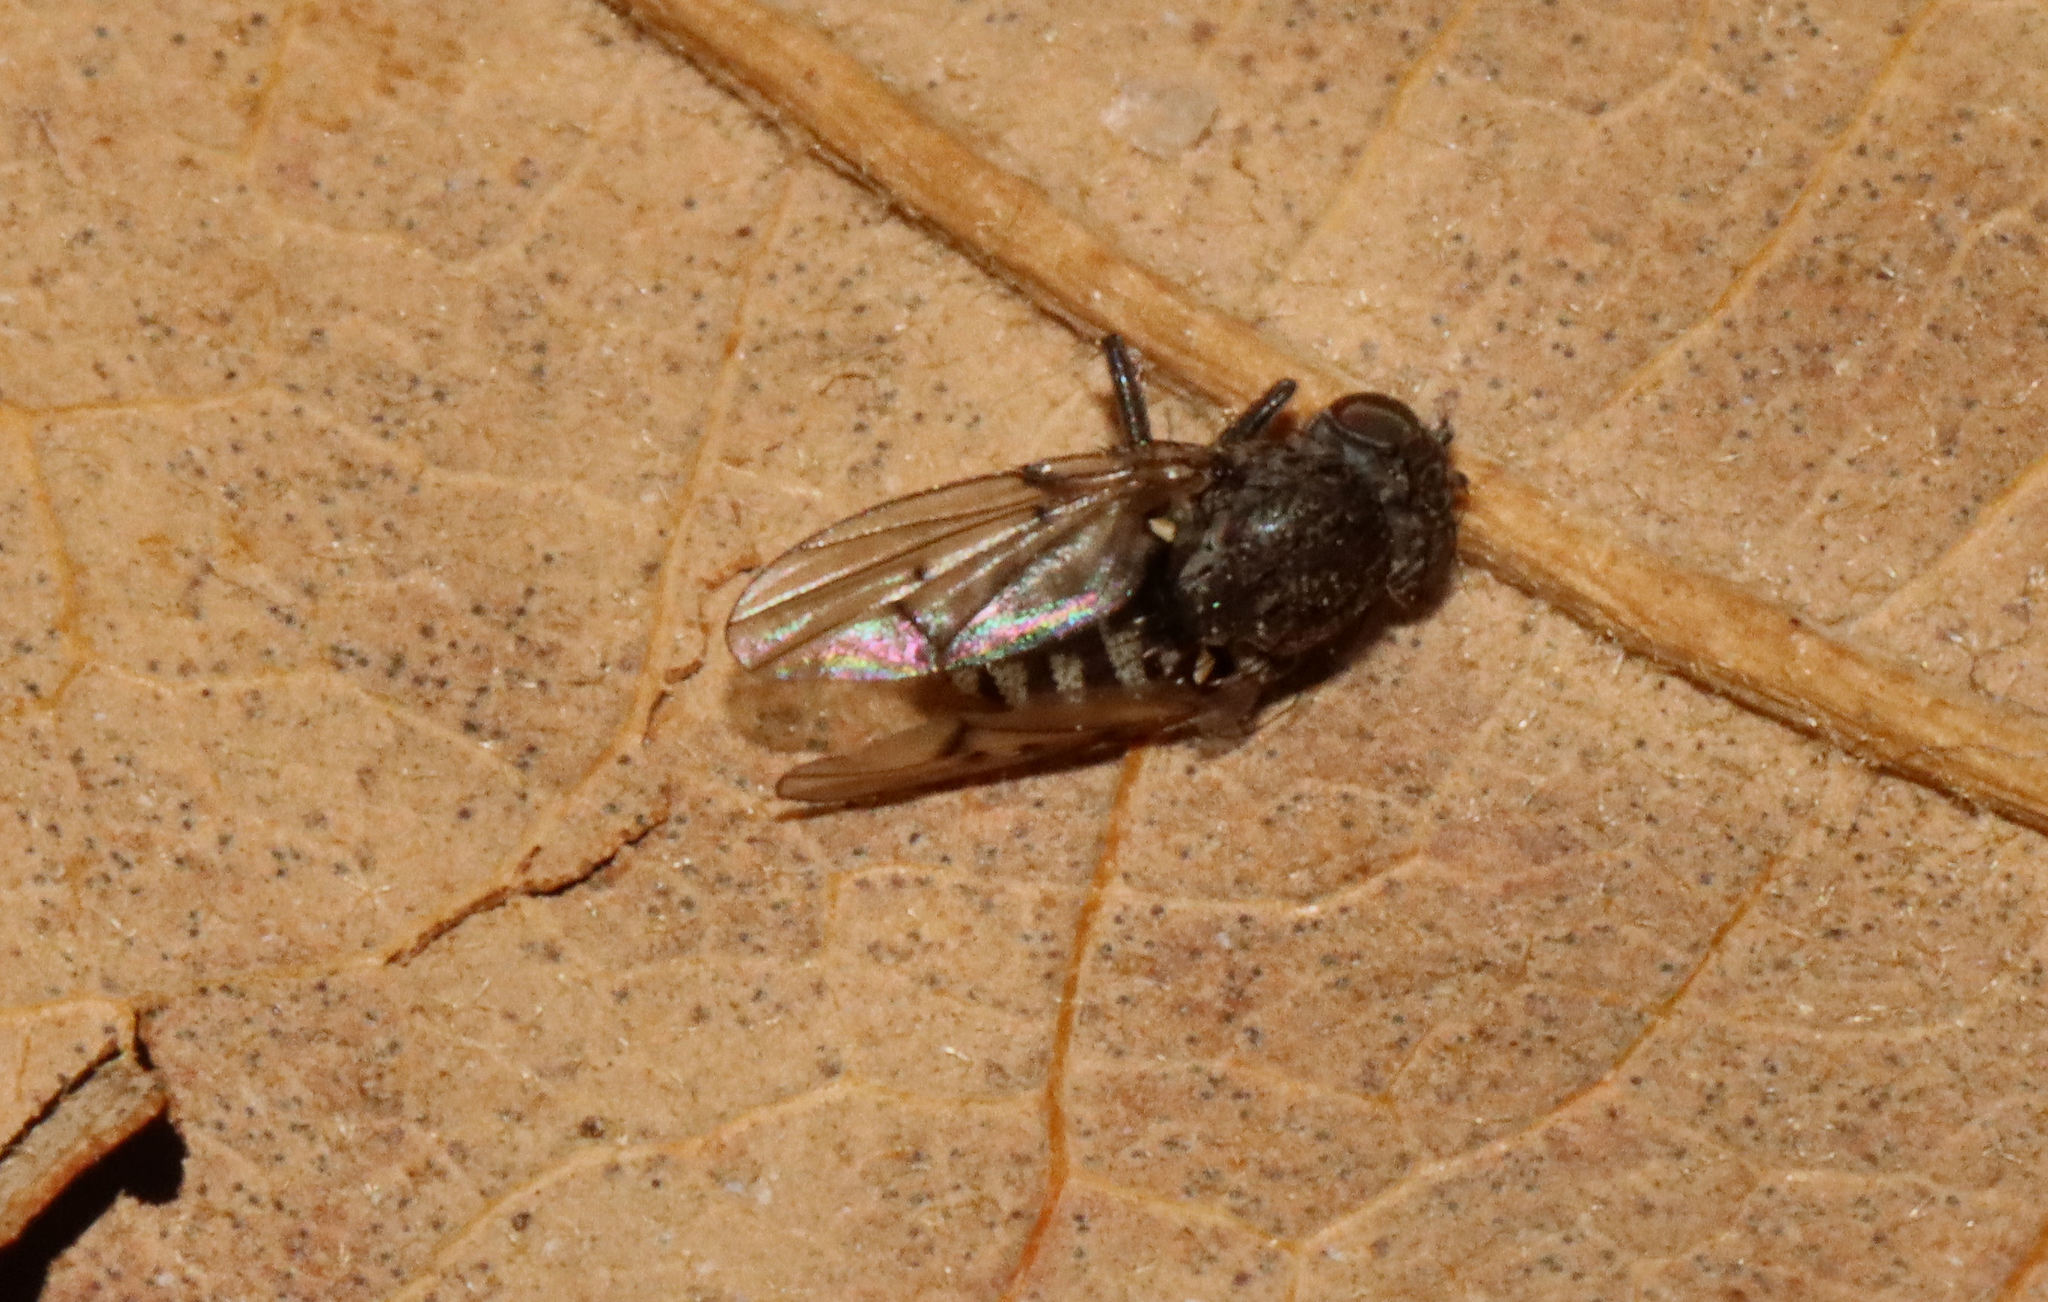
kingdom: Animalia
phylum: Arthropoda
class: Insecta
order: Diptera
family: Ephydridae
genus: Paralimna
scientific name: Paralimna punctipennis
